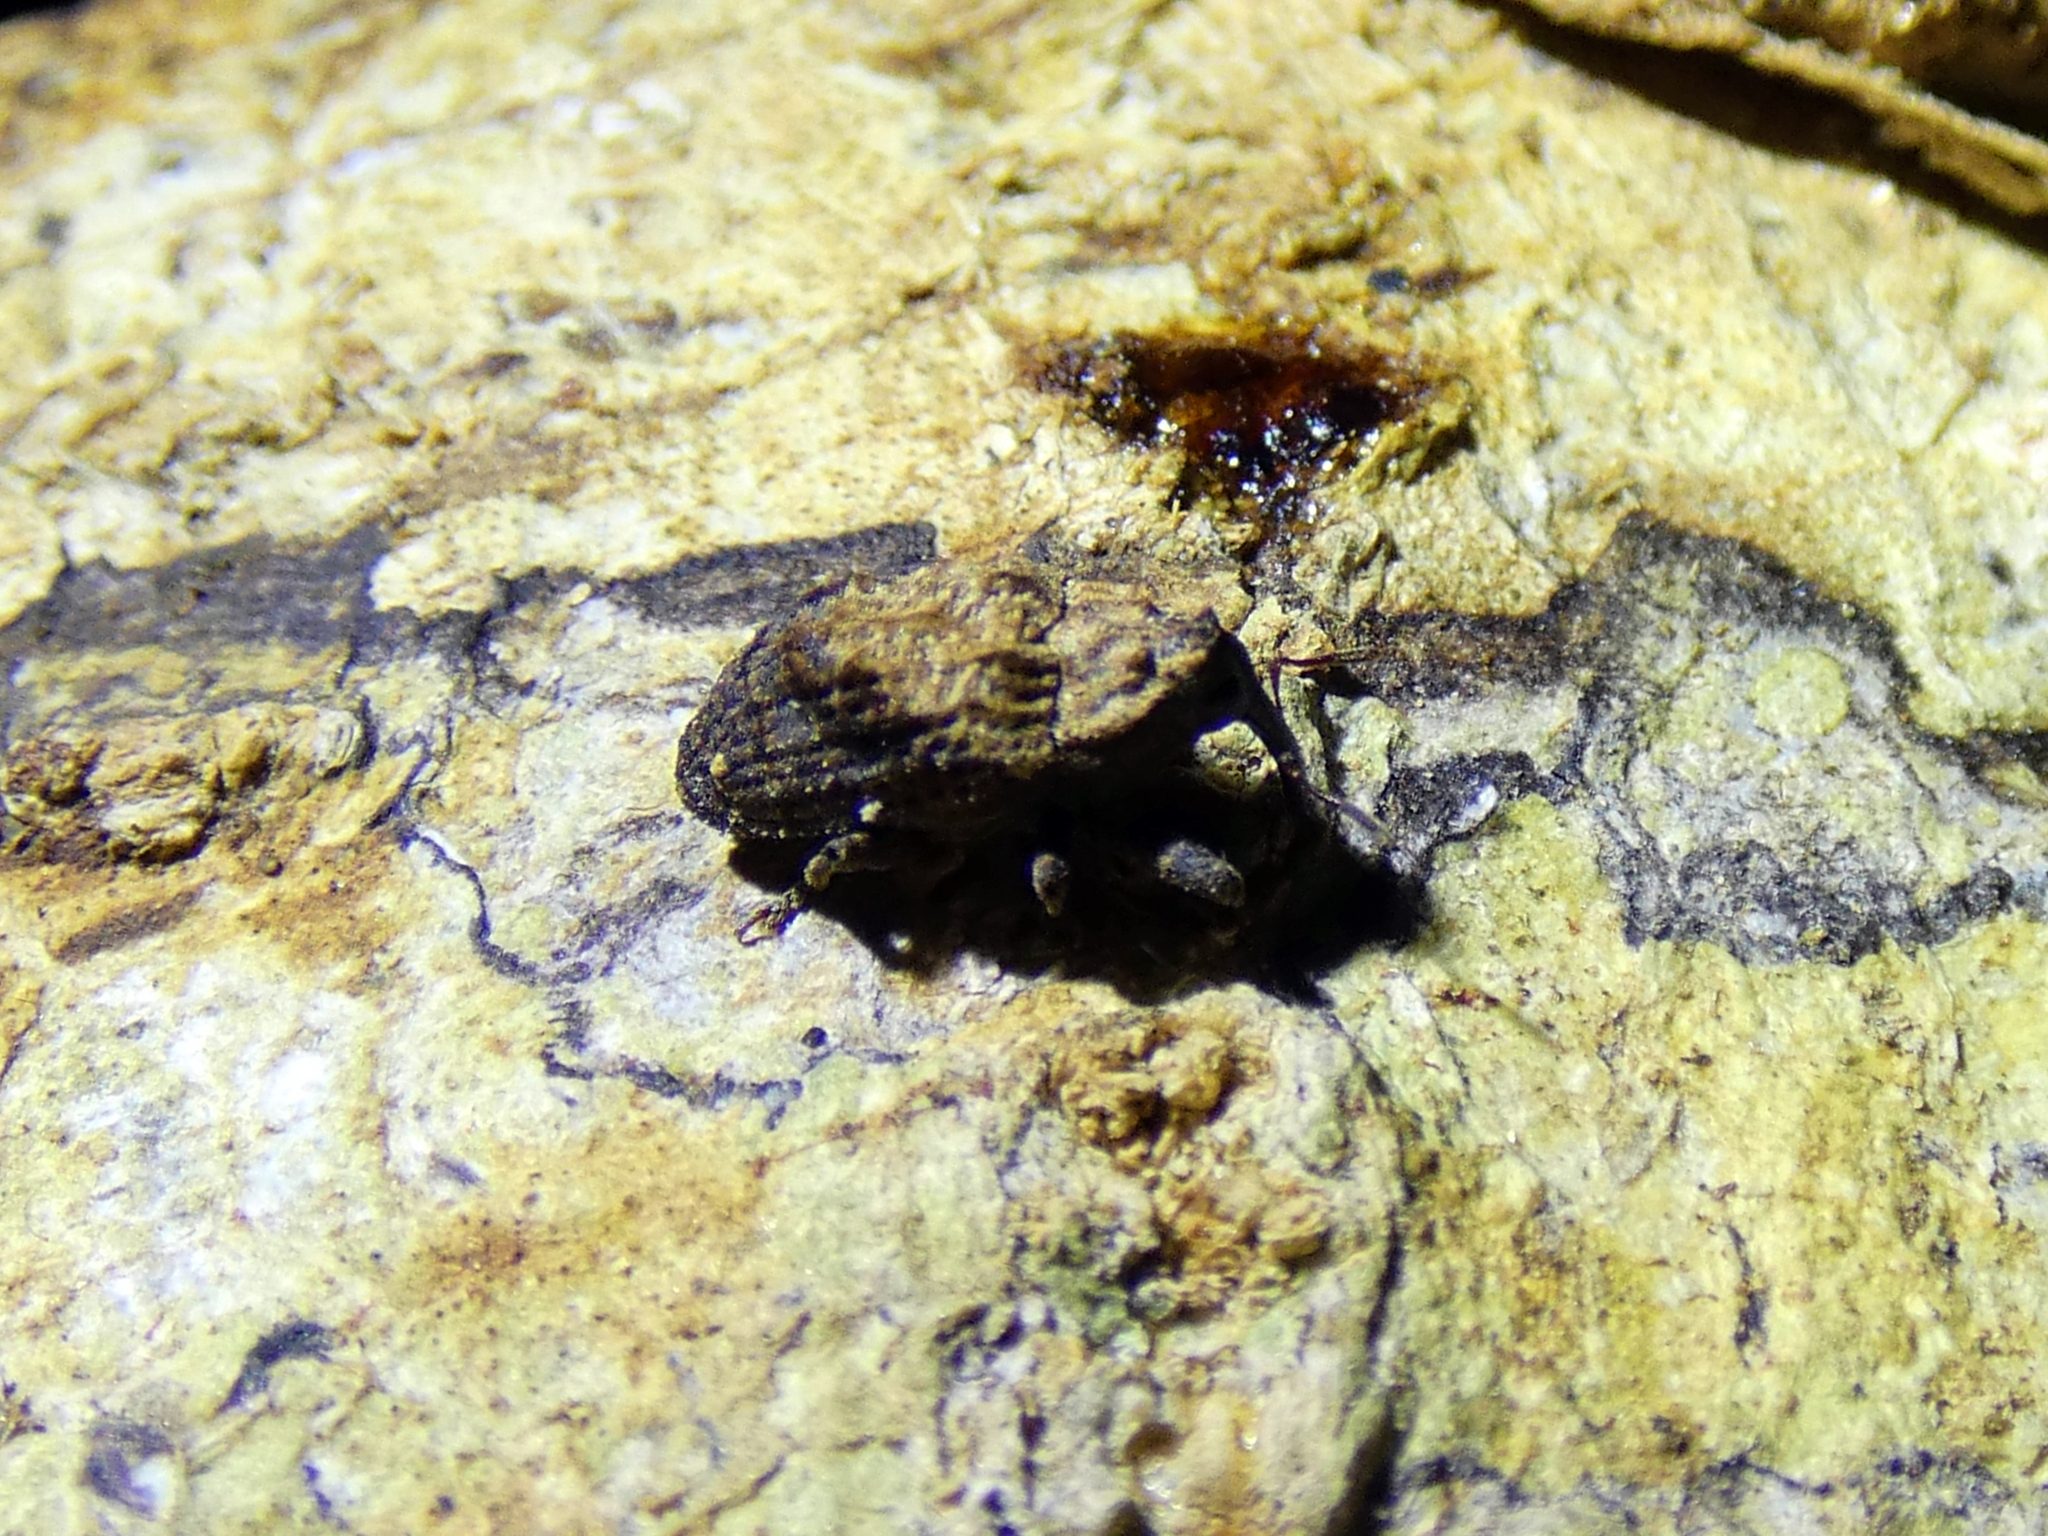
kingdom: Animalia
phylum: Arthropoda
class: Insecta
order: Coleoptera
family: Curculionidae
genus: Blepiarda
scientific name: Blepiarda undulata
